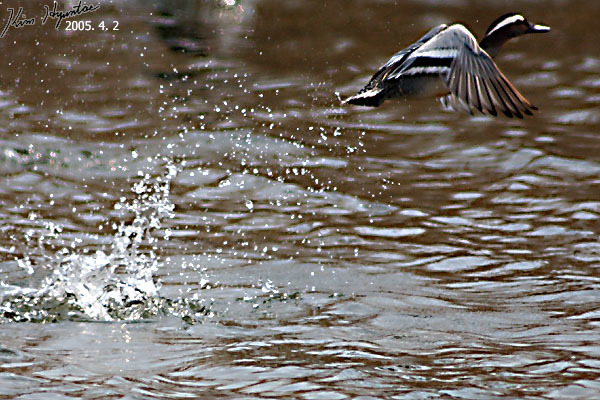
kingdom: Animalia
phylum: Chordata
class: Aves
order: Anseriformes
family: Anatidae
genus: Spatula
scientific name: Spatula querquedula
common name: Garganey
